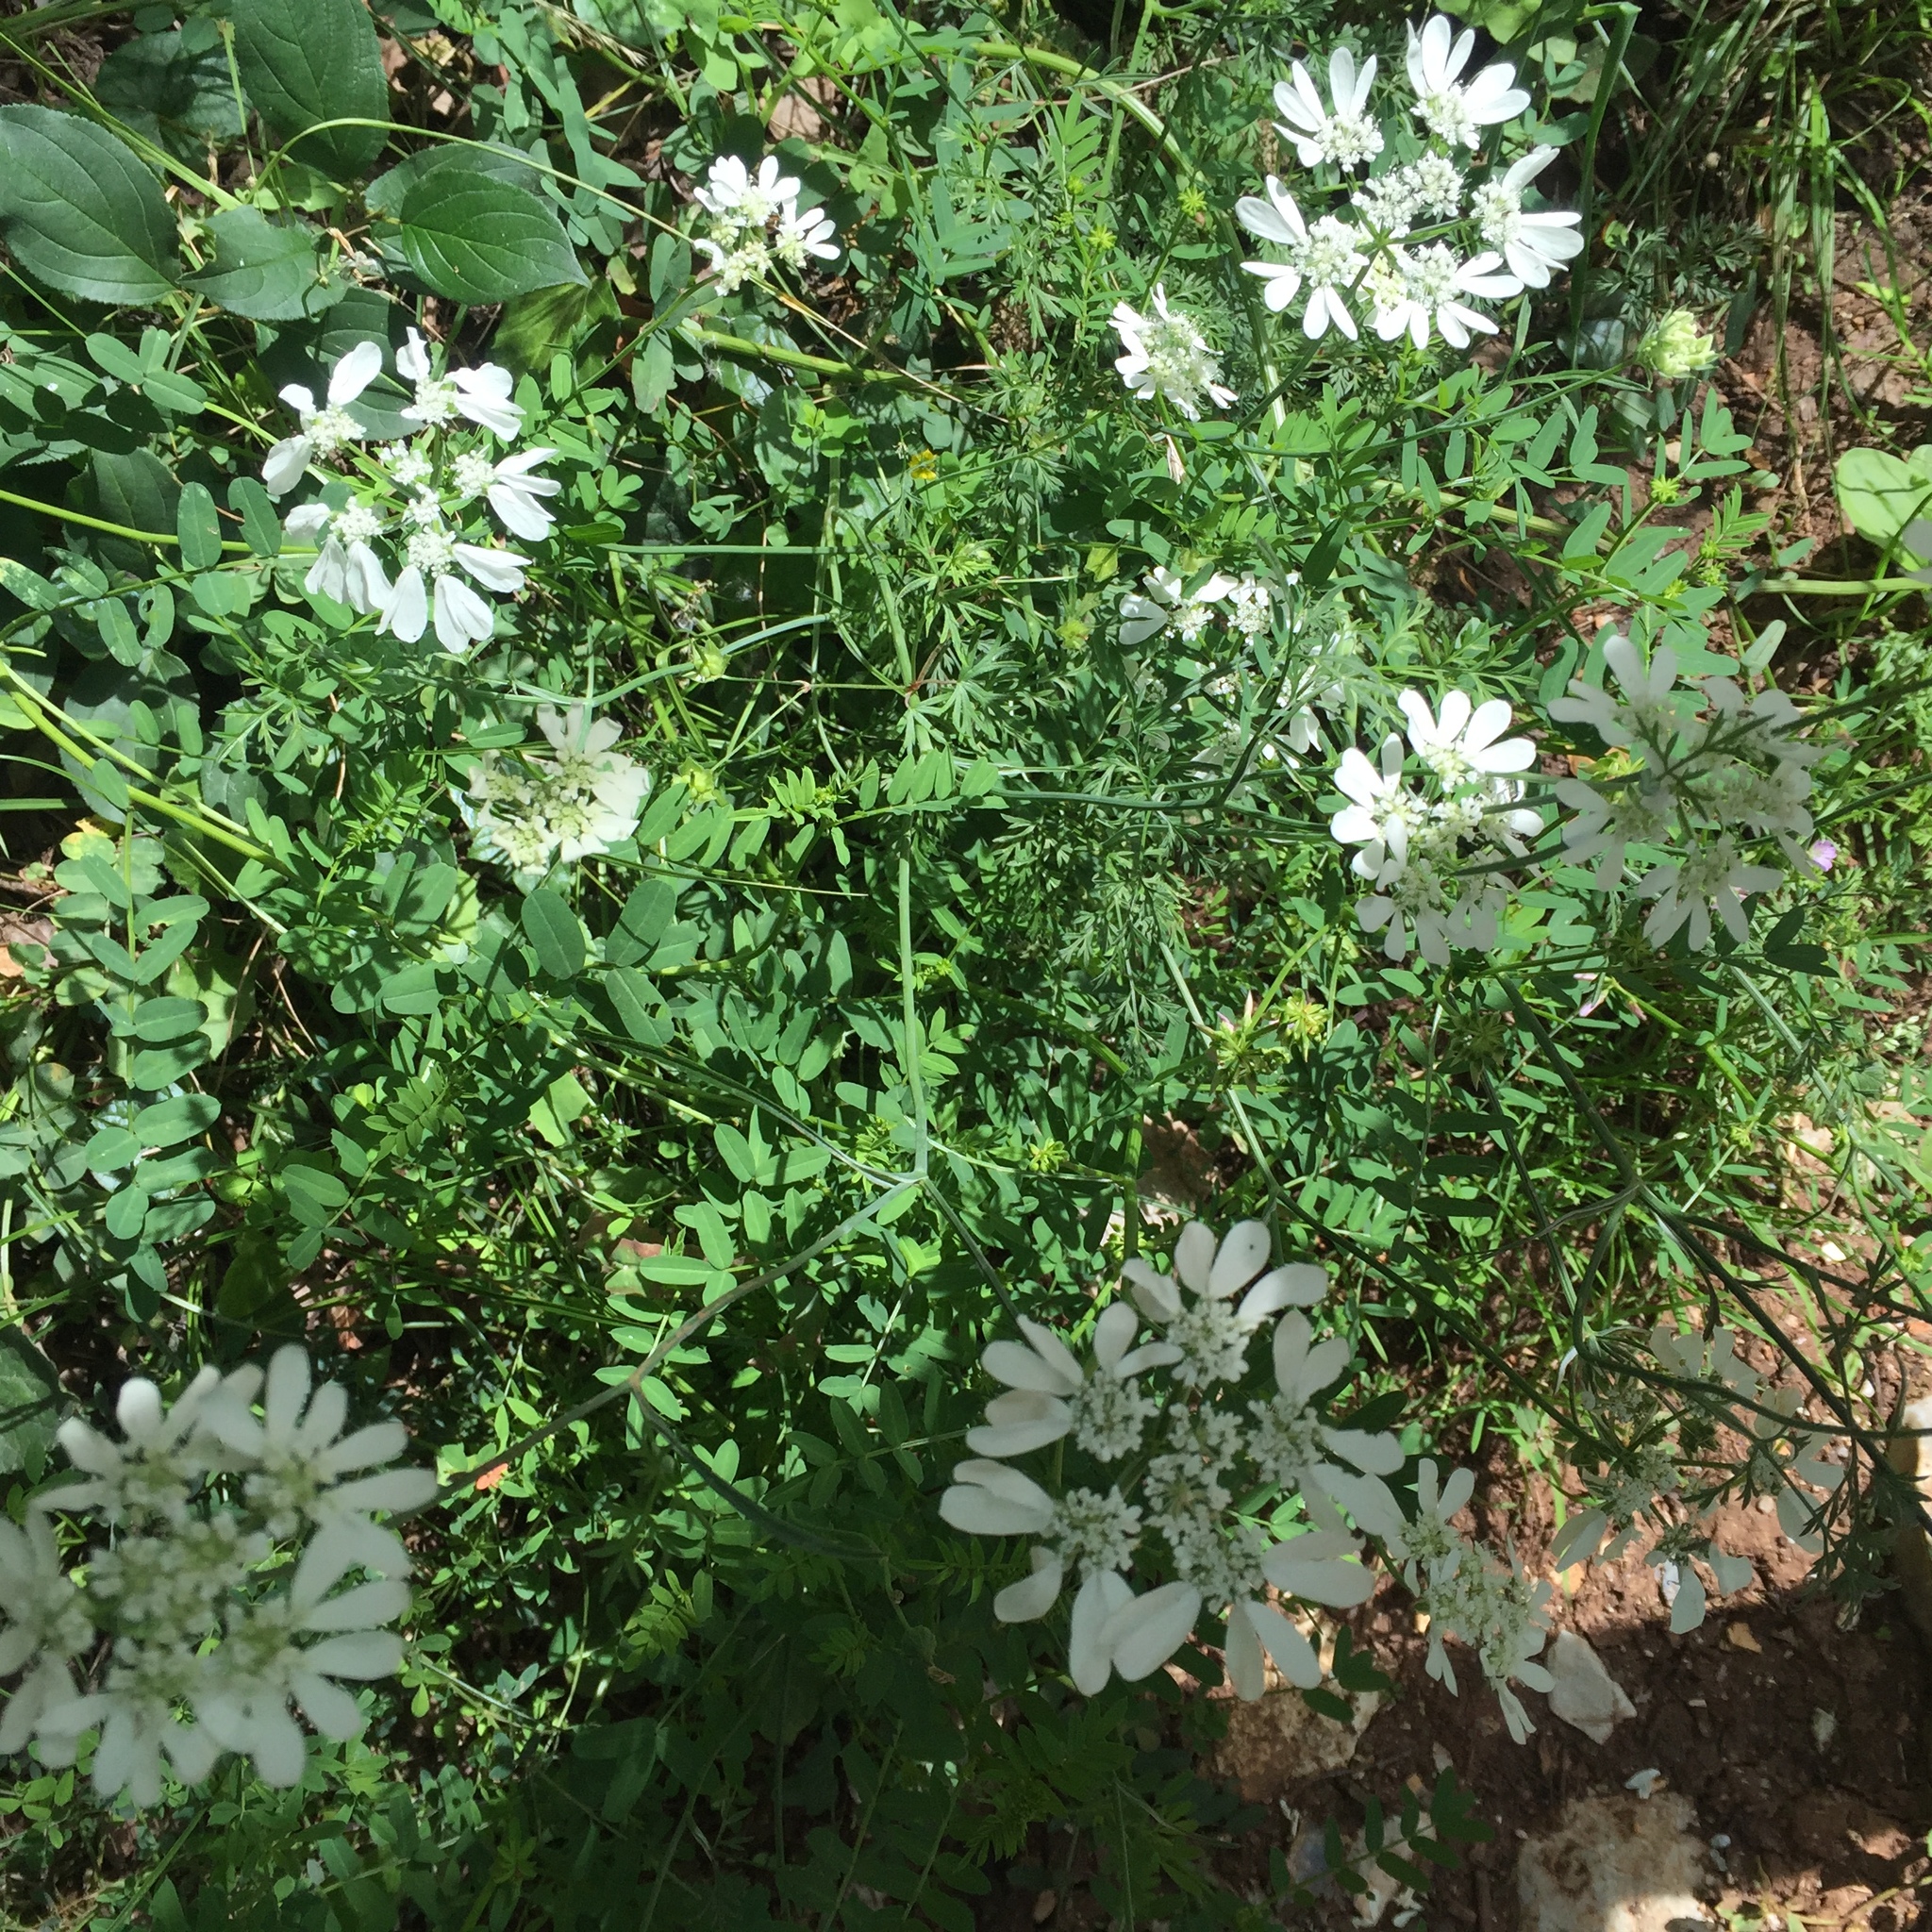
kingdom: Plantae
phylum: Tracheophyta
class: Magnoliopsida
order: Apiales
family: Apiaceae
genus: Orlaya
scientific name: Orlaya grandiflora
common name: White lace flower
